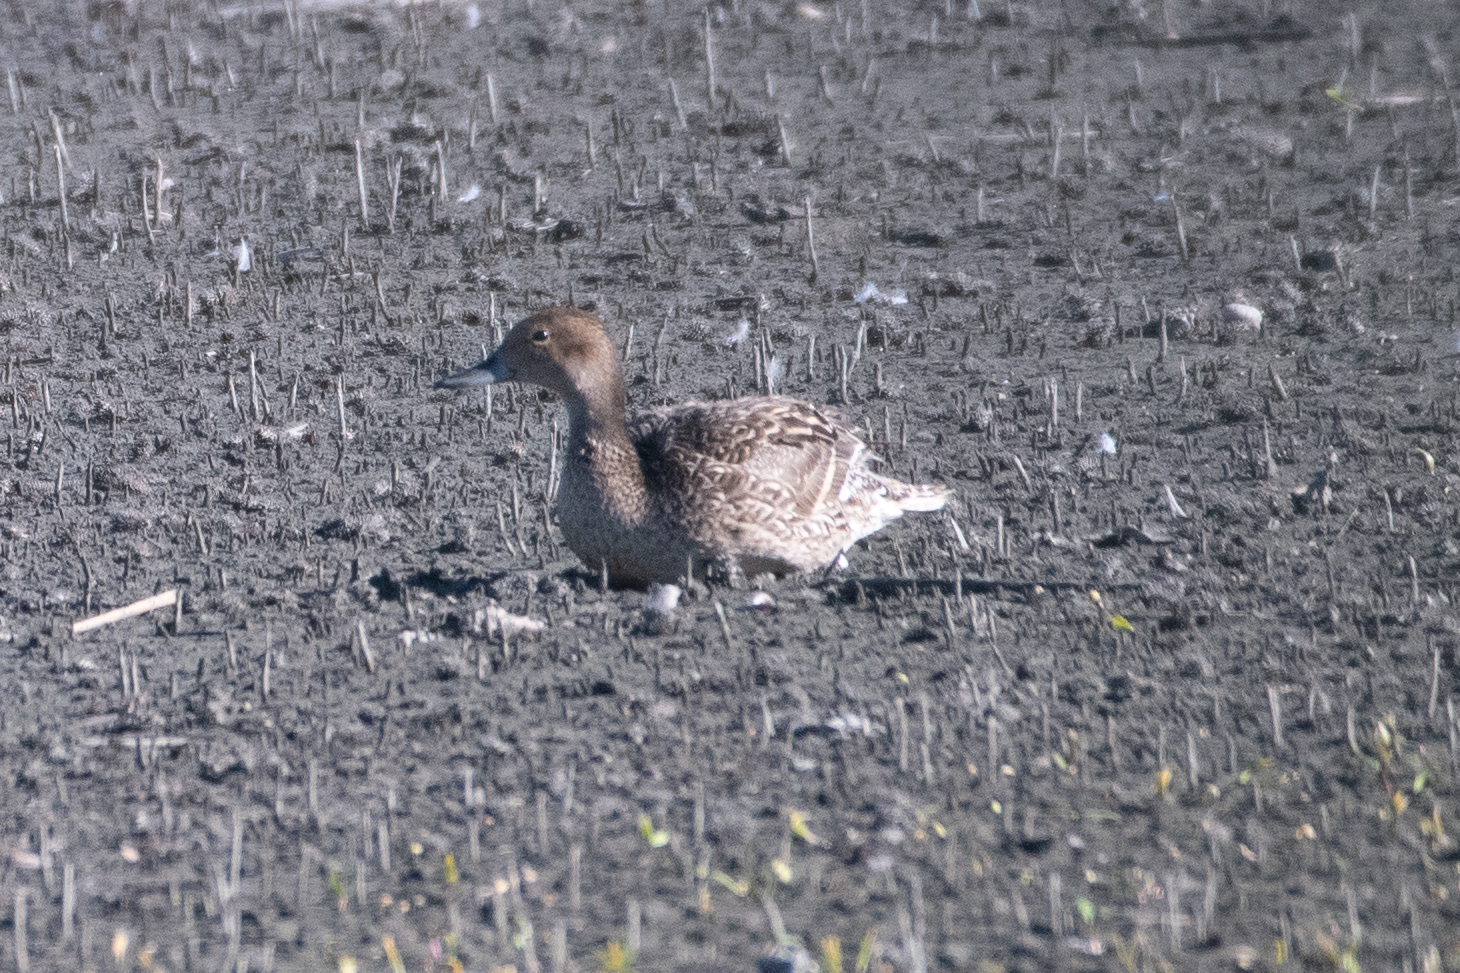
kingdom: Animalia
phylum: Chordata
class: Aves
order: Anseriformes
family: Anatidae
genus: Anas
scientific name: Anas acuta
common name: Northern pintail
